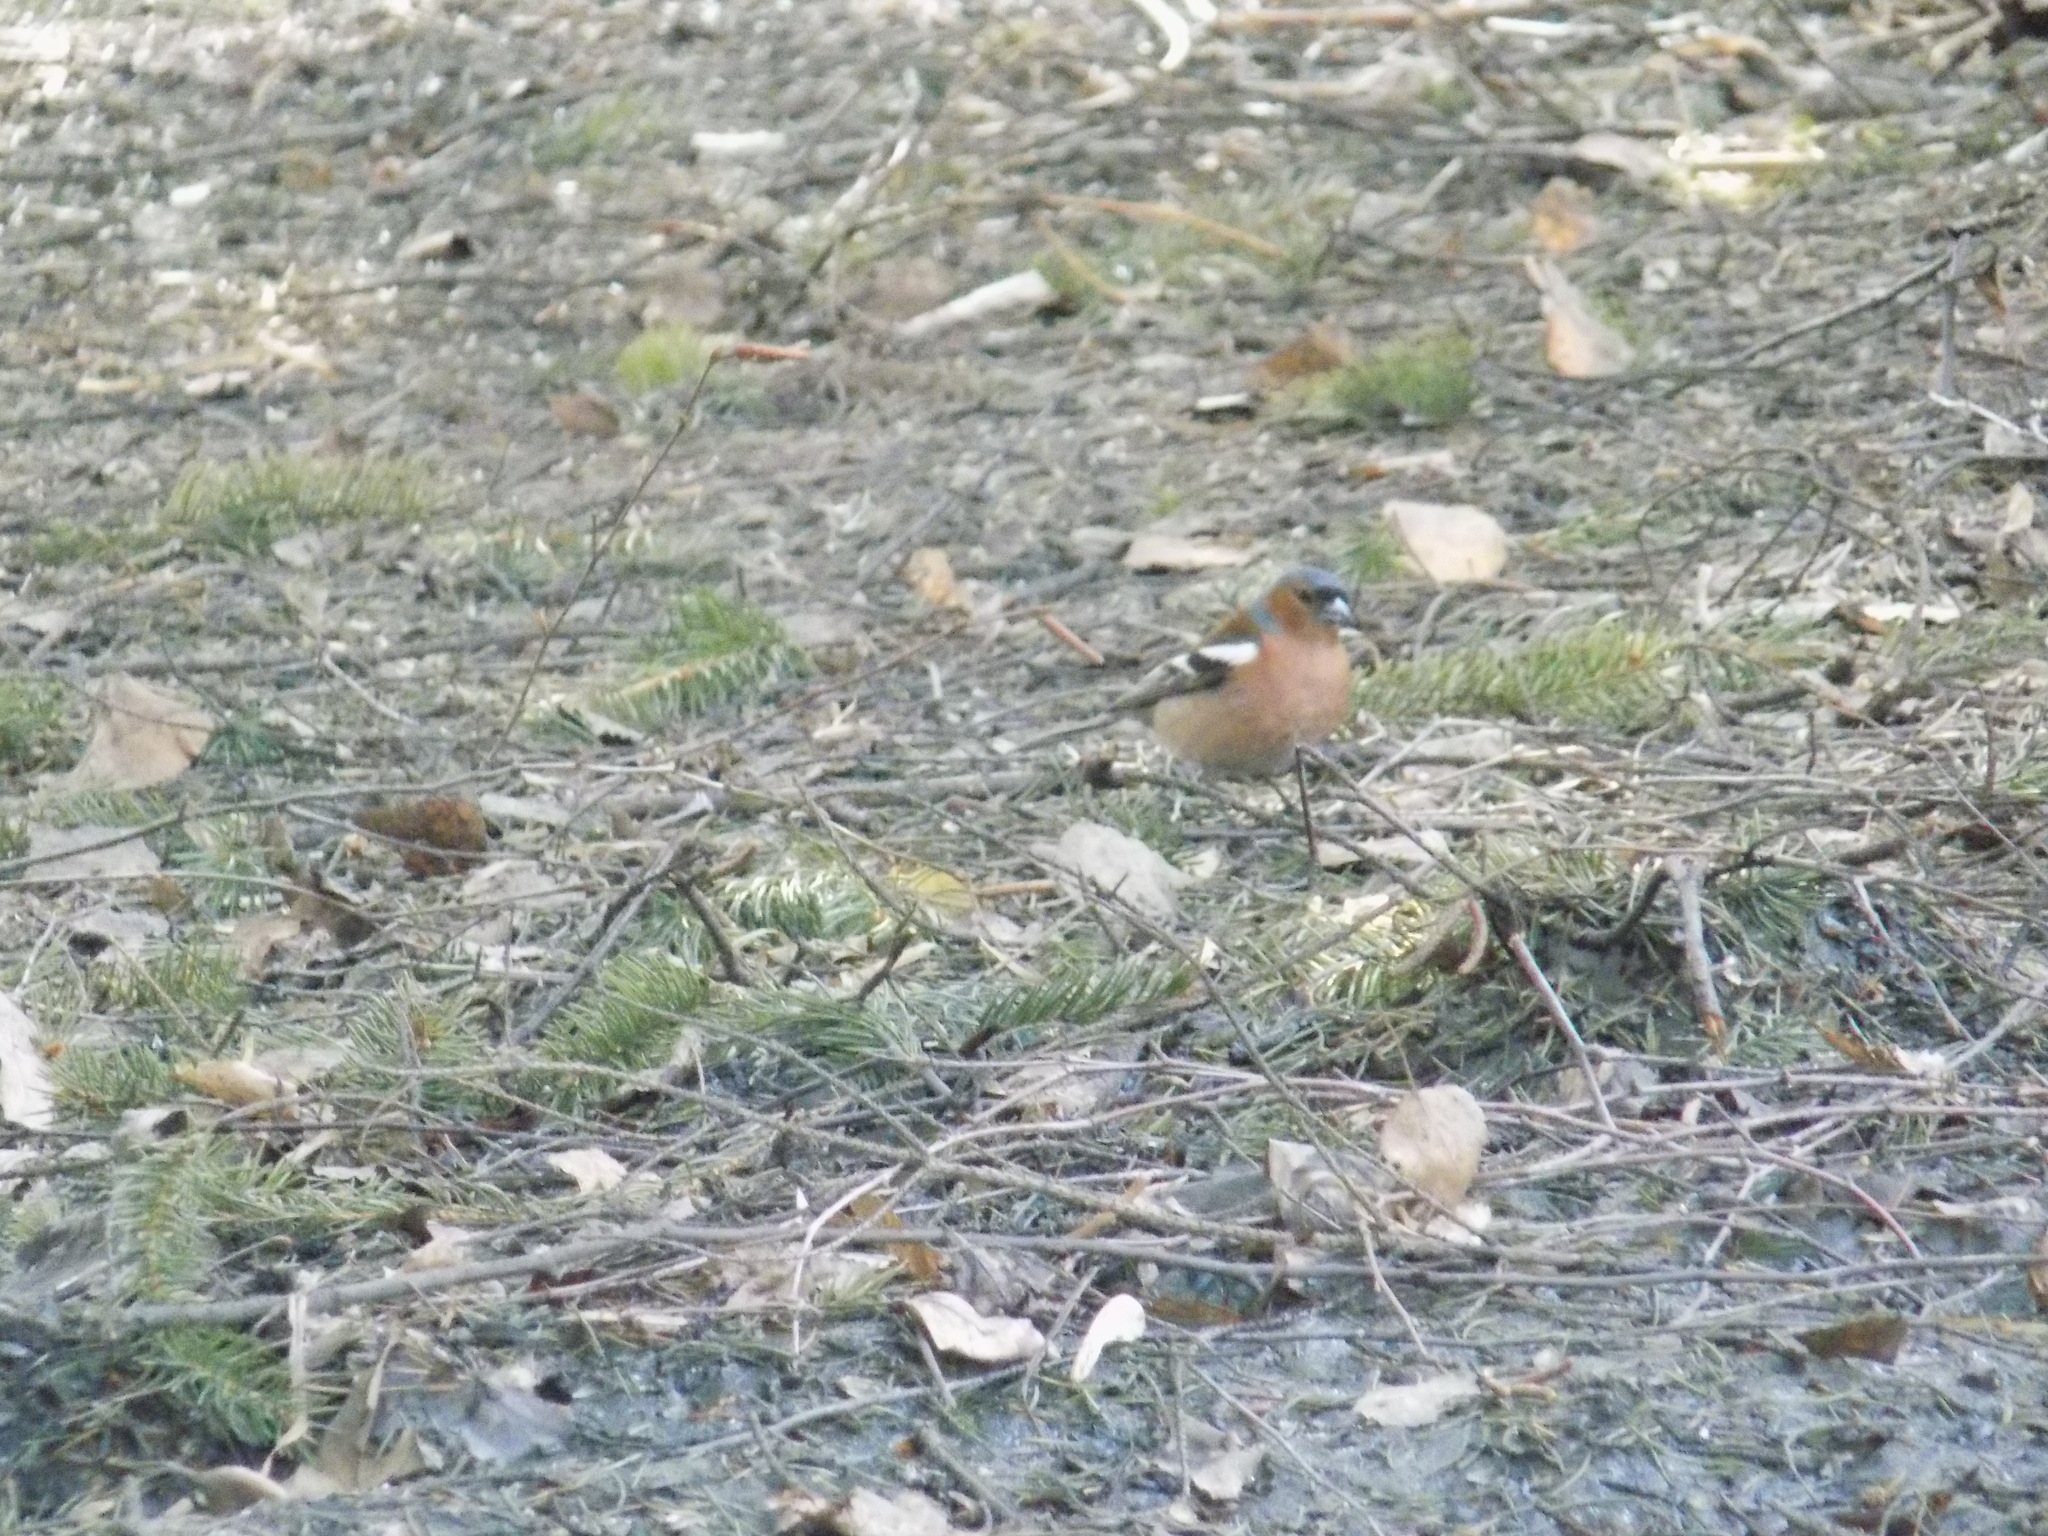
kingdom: Animalia
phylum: Chordata
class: Aves
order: Passeriformes
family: Fringillidae
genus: Fringilla
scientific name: Fringilla coelebs
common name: Common chaffinch
